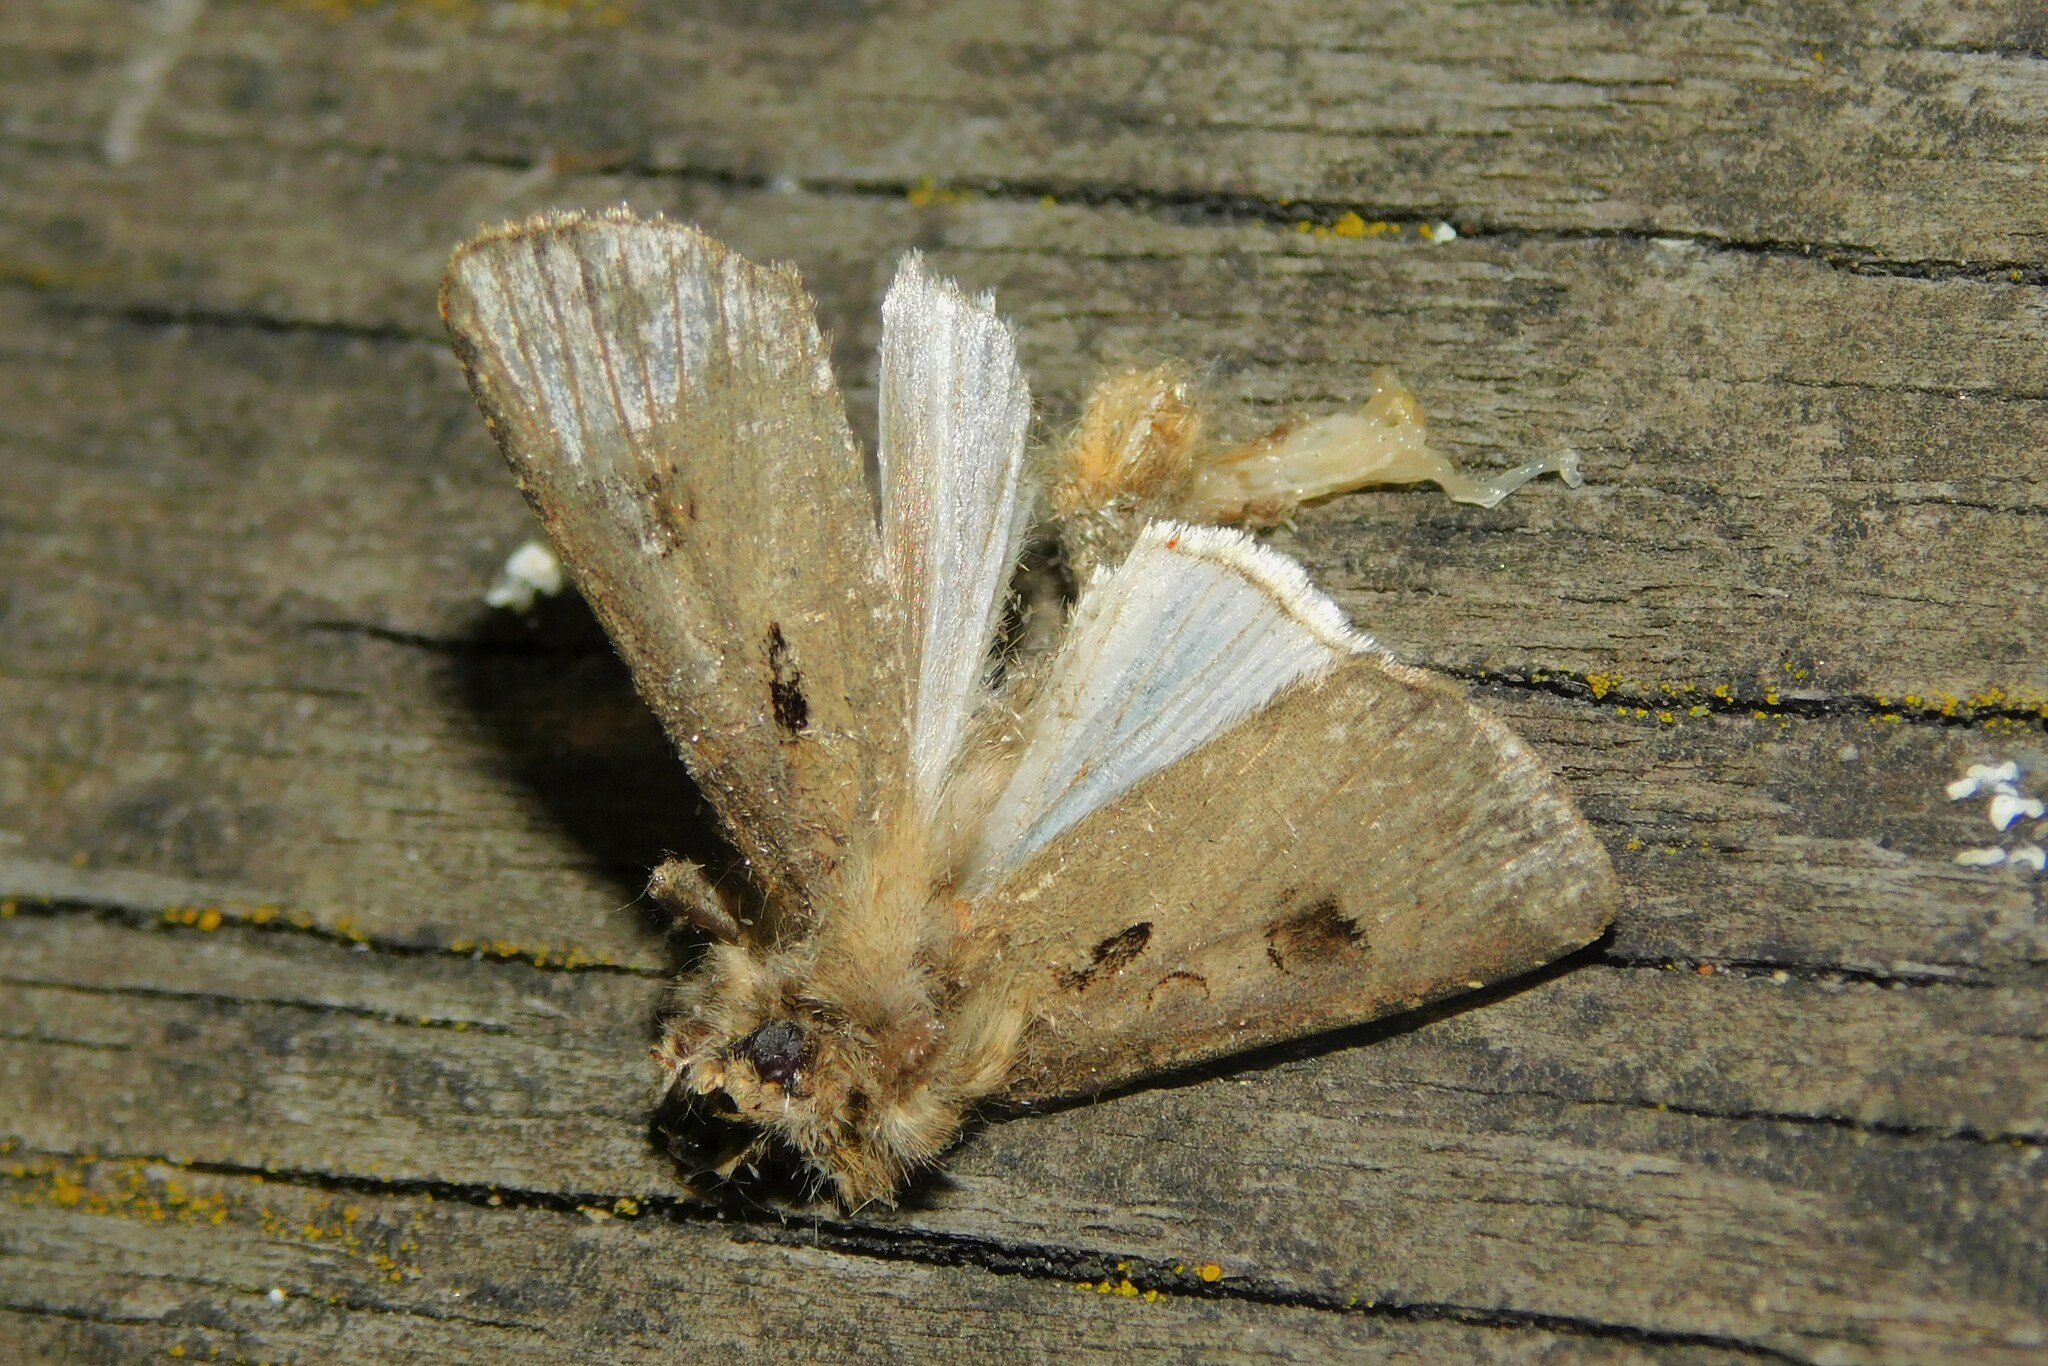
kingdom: Animalia
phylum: Arthropoda
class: Insecta
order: Lepidoptera
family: Noctuidae
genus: Agrotis
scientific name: Agrotis exclamationis
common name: Heart and dart
